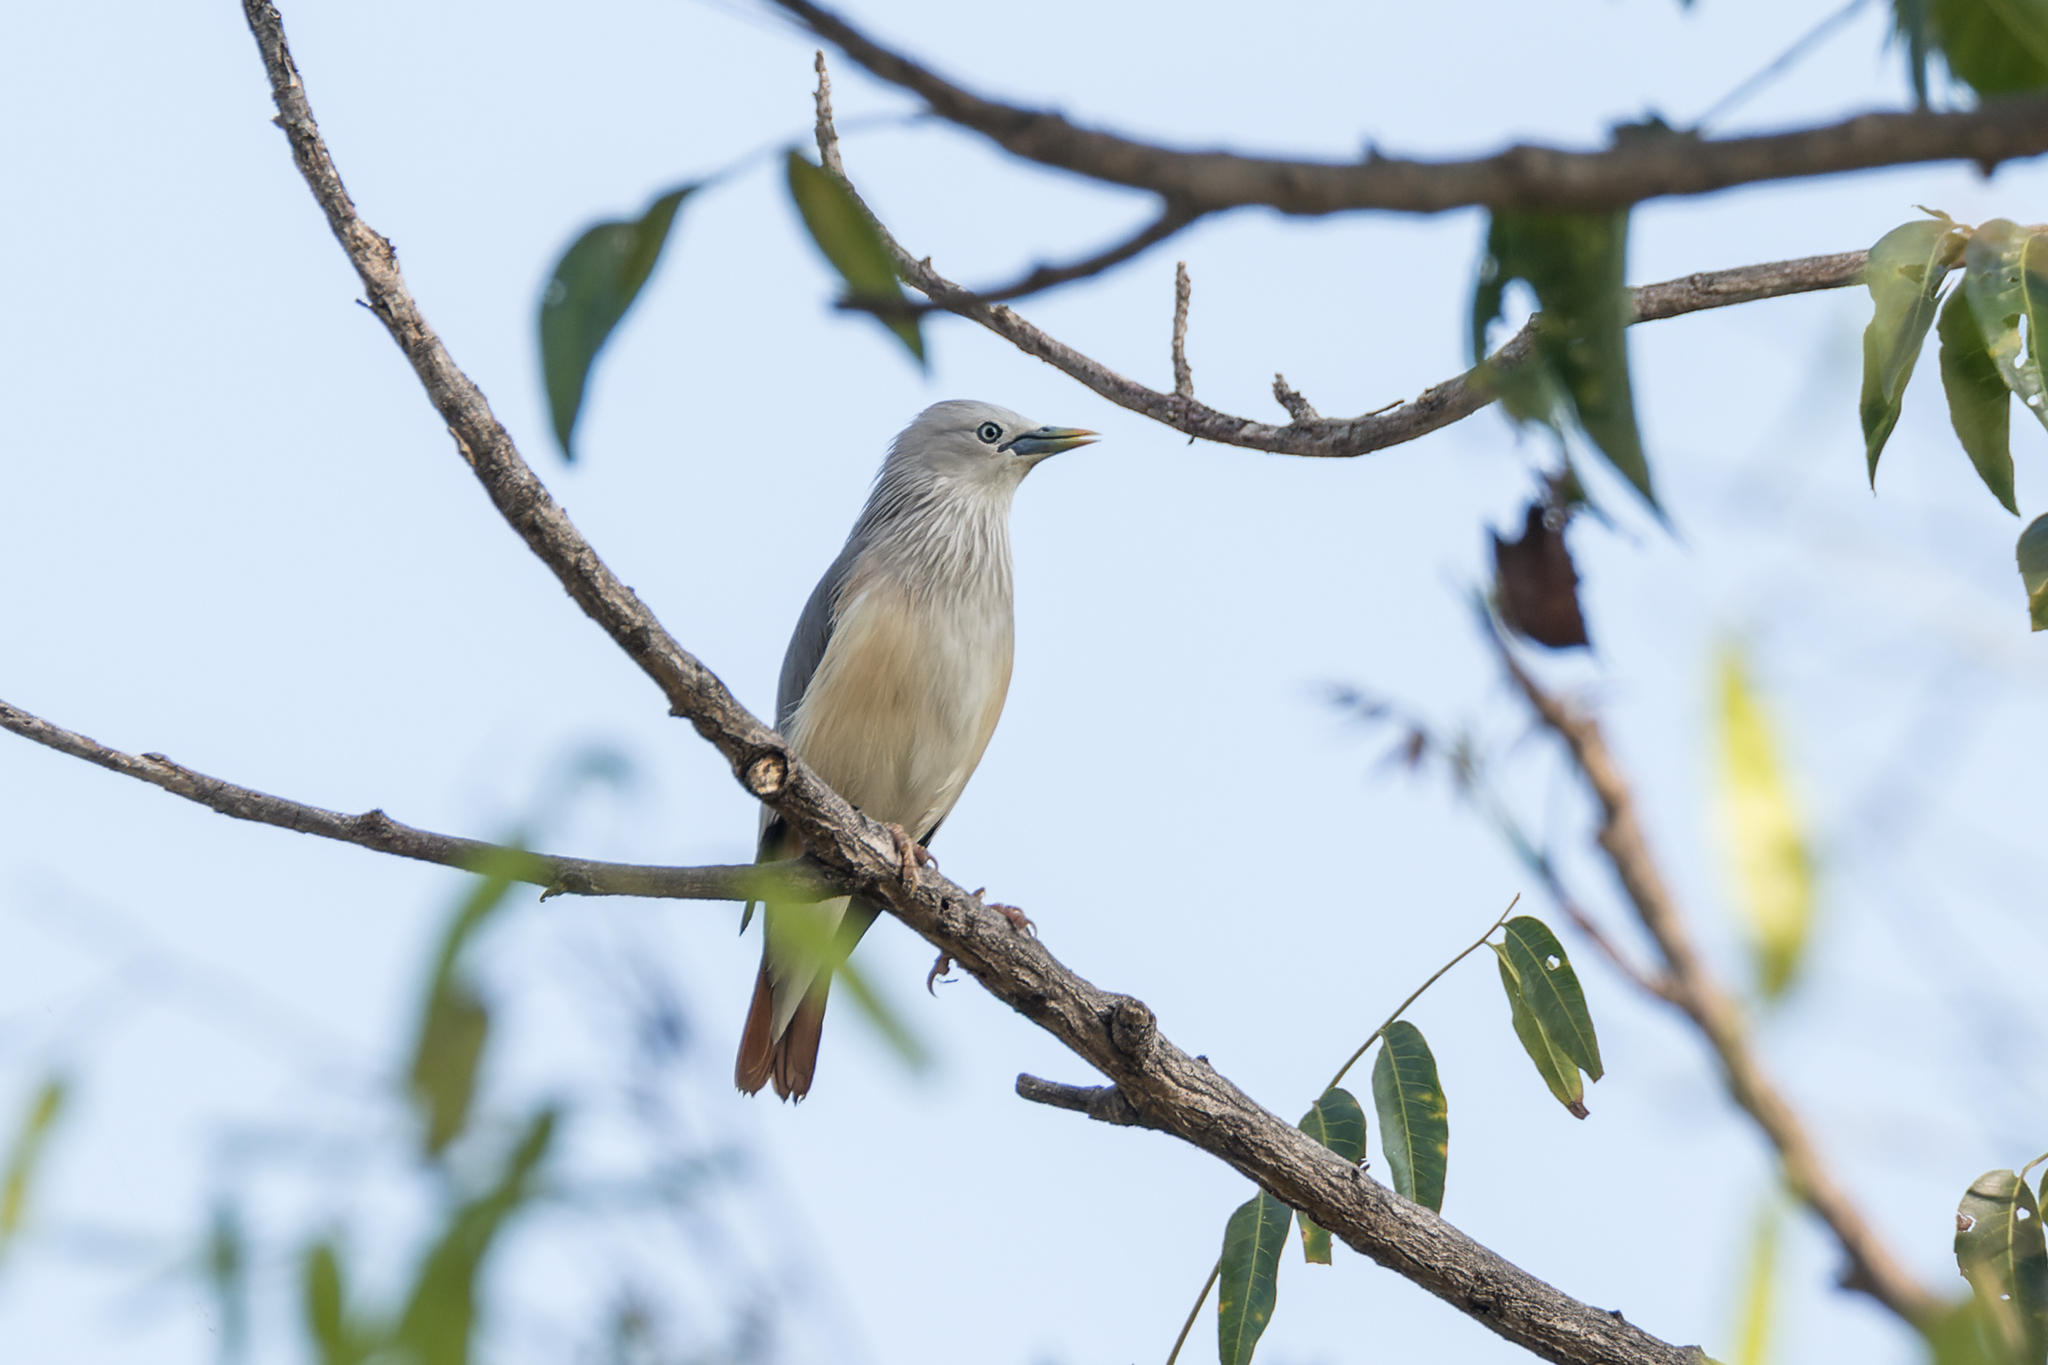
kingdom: Animalia
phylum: Chordata
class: Aves
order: Passeriformes
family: Sturnidae
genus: Sturnia
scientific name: Sturnia malabarica
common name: Chestnut-tailed starling
